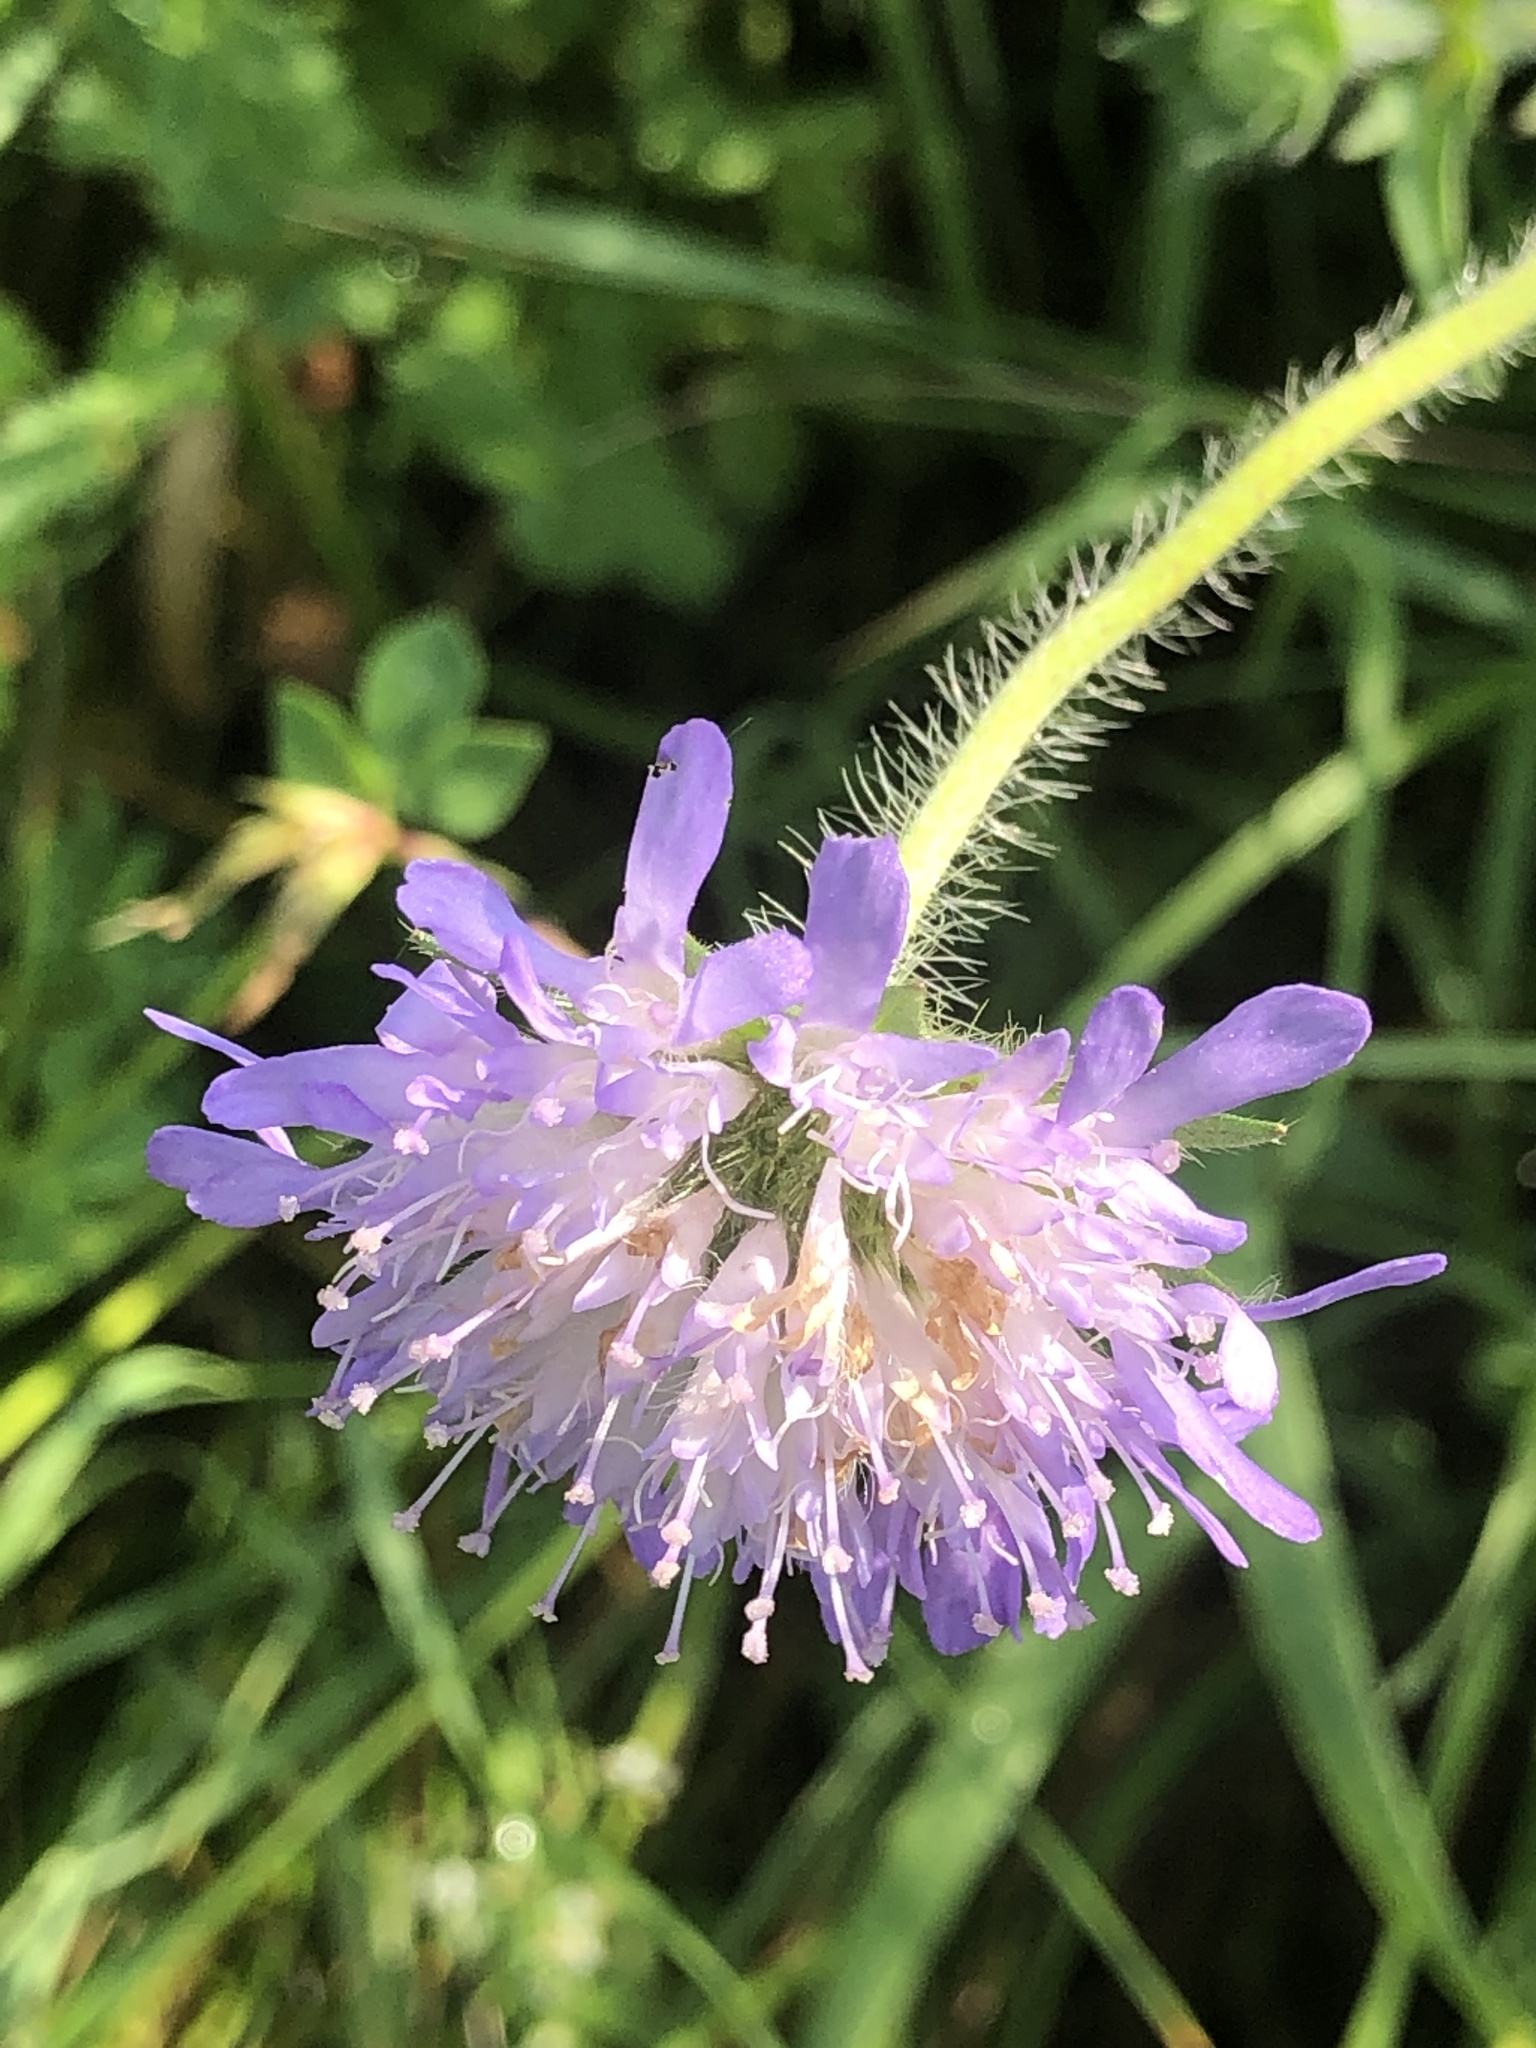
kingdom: Plantae
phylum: Tracheophyta
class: Magnoliopsida
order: Dipsacales
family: Caprifoliaceae
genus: Knautia
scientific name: Knautia arvensis
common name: Field scabiosa
